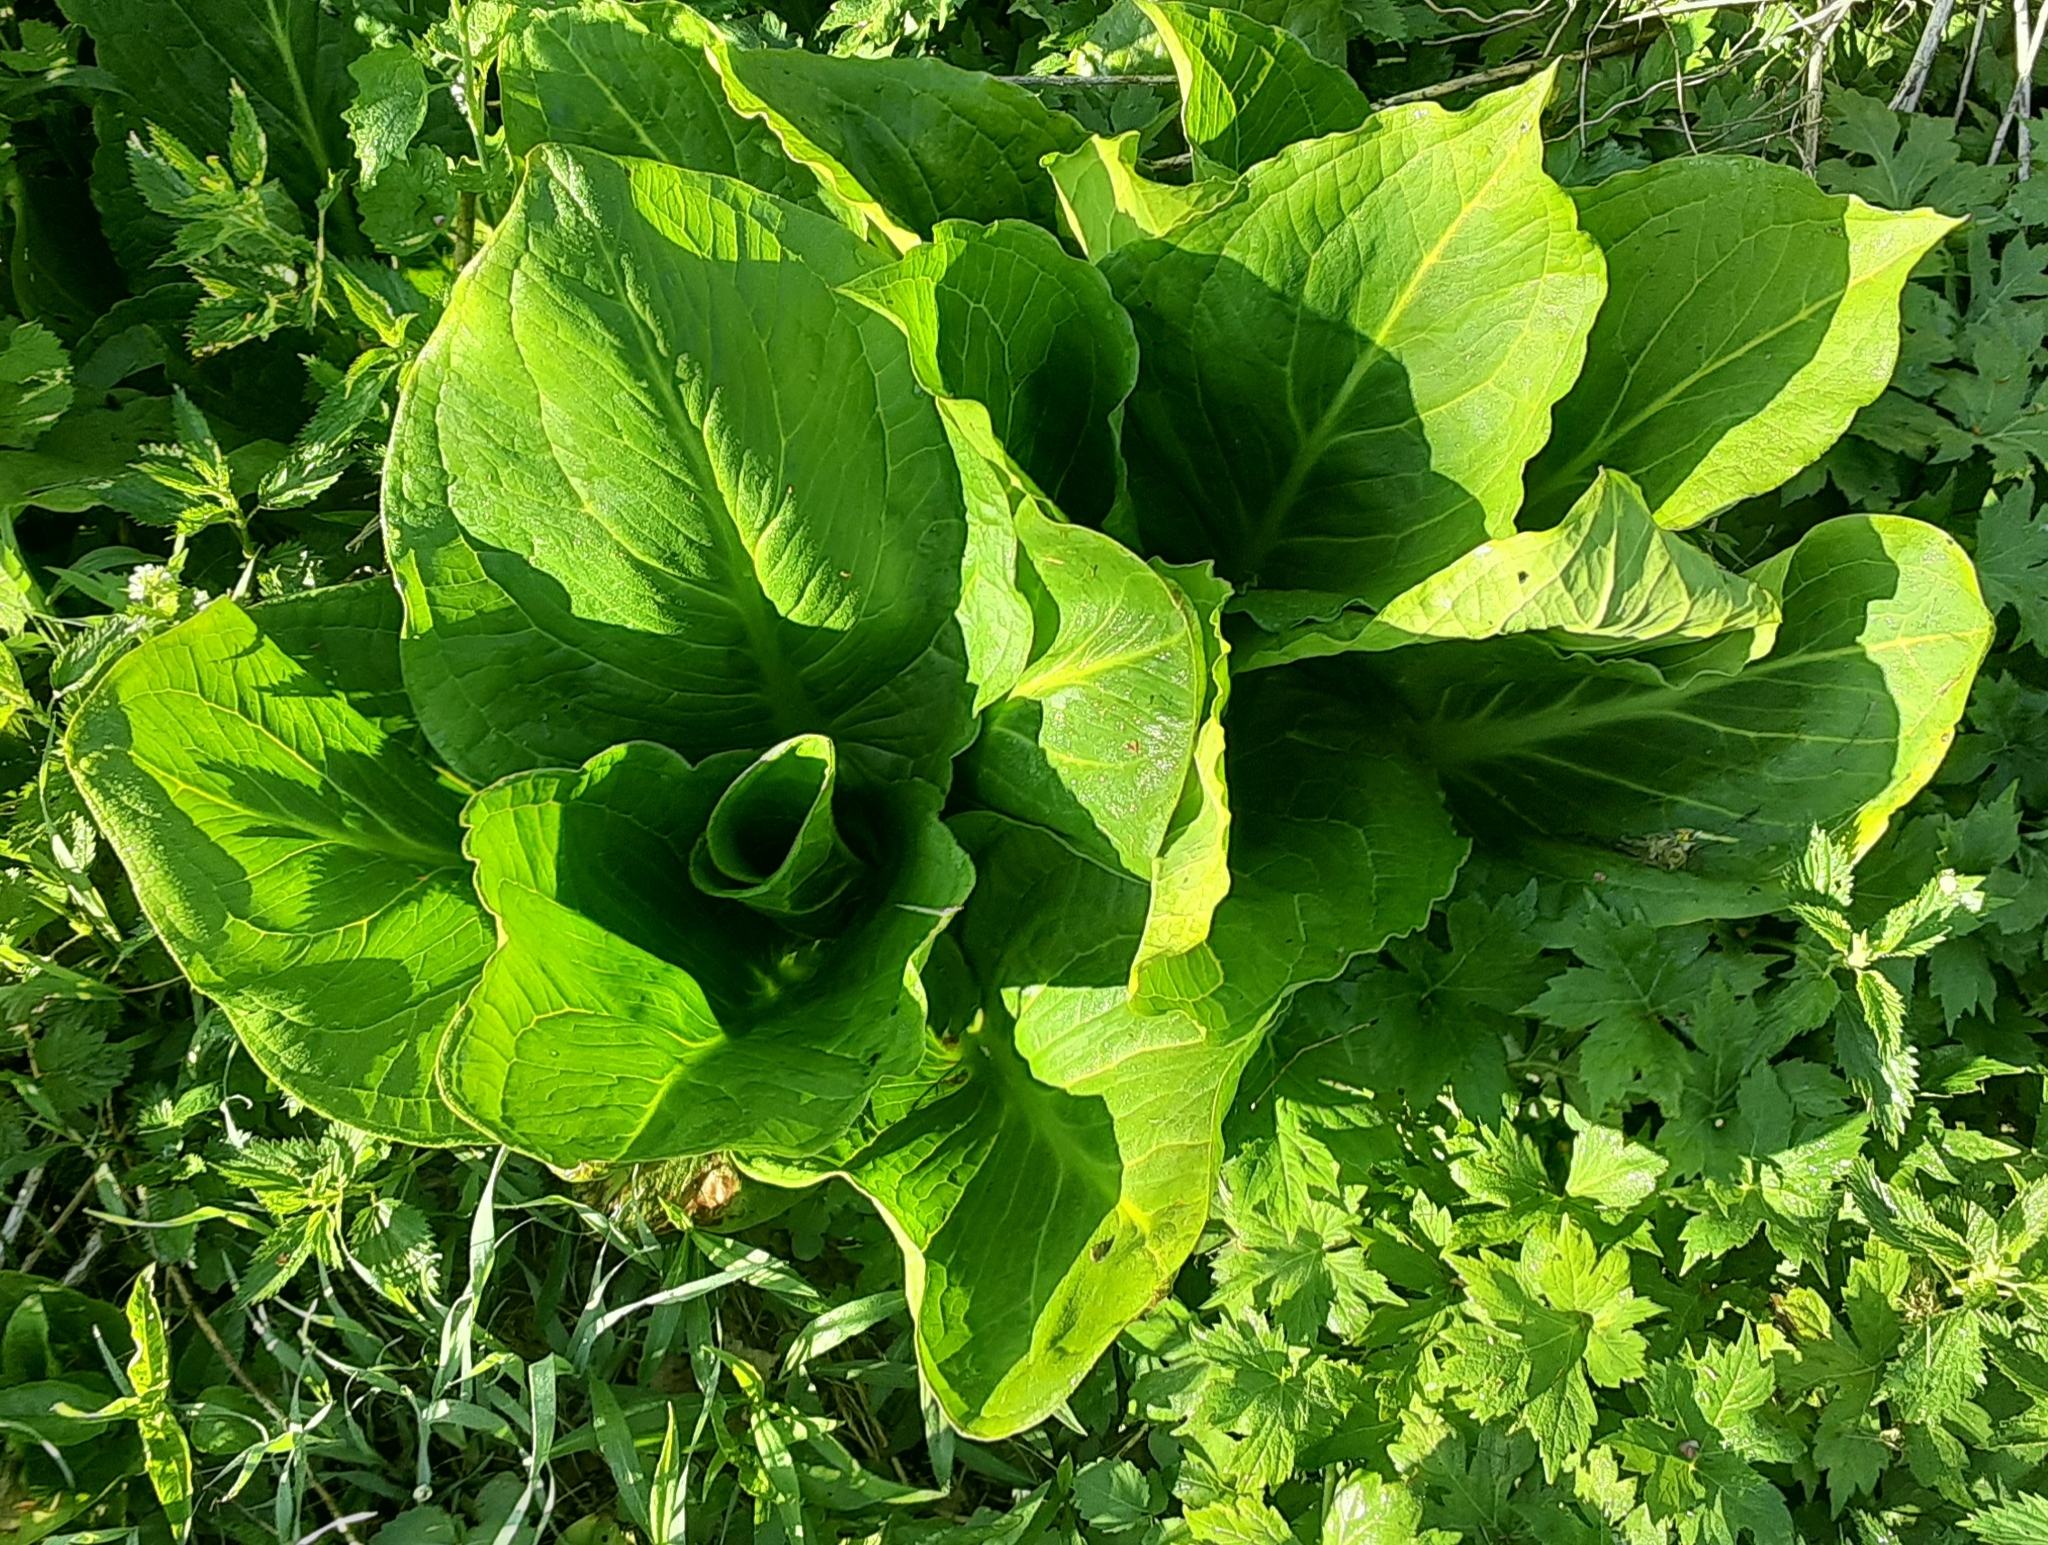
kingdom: Plantae
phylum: Tracheophyta
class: Liliopsida
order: Alismatales
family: Araceae
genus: Symplocarpus
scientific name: Symplocarpus foetidus
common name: Eastern skunk cabbage
